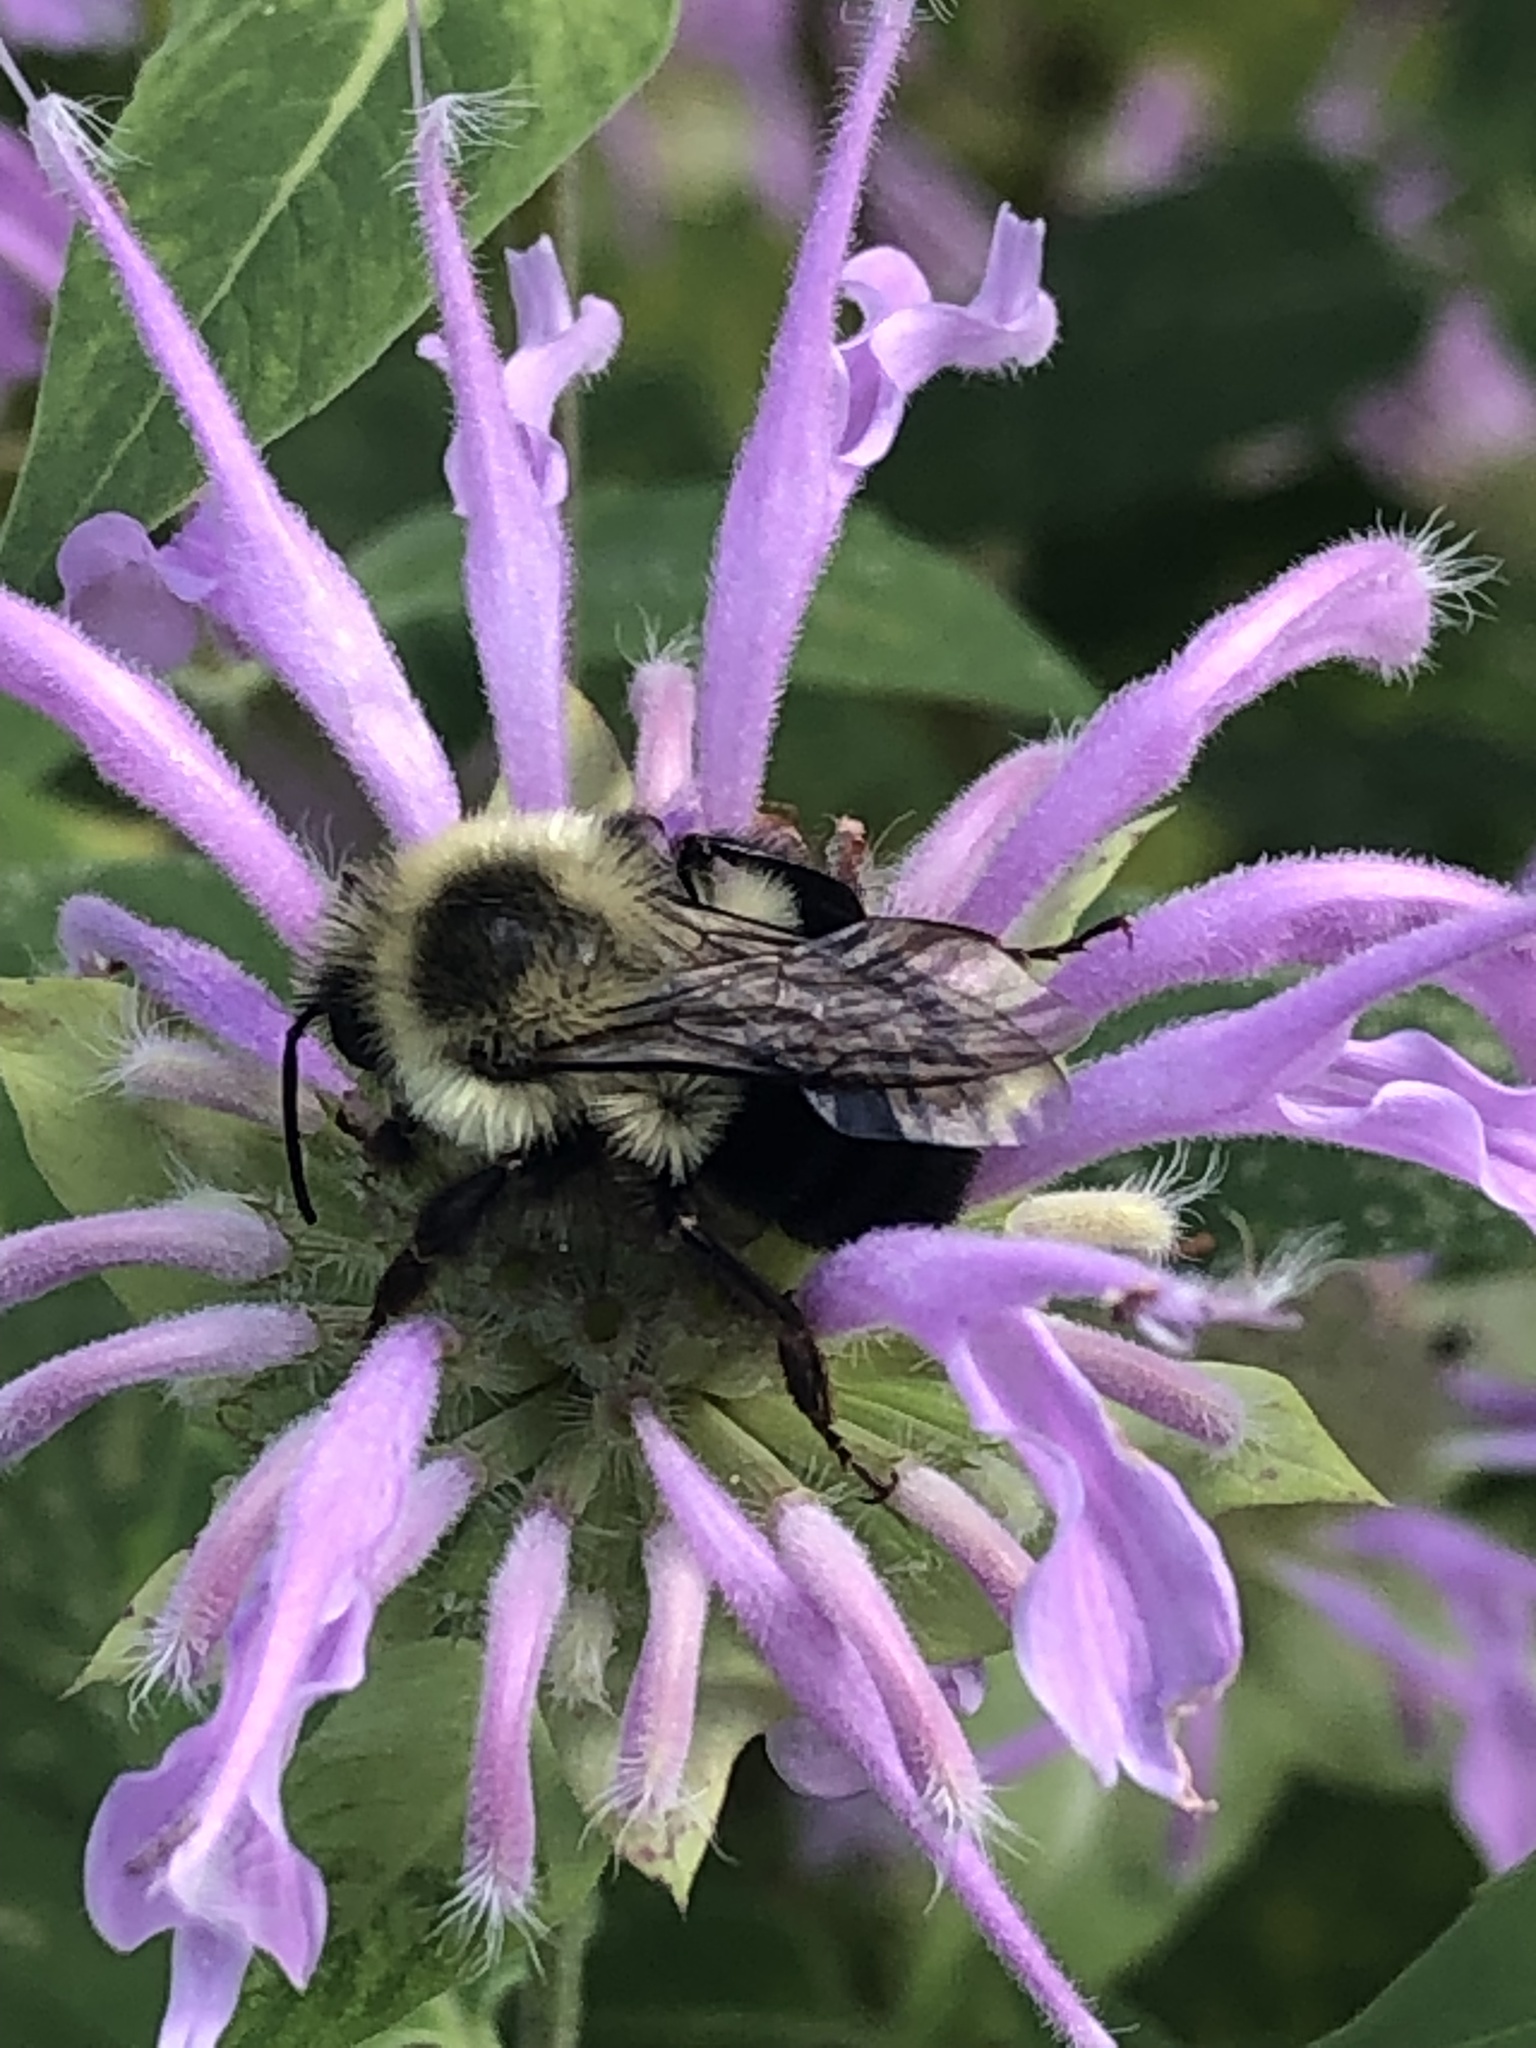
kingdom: Animalia
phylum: Arthropoda
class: Insecta
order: Hymenoptera
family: Apidae
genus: Bombus
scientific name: Bombus impatiens
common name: Common eastern bumble bee
